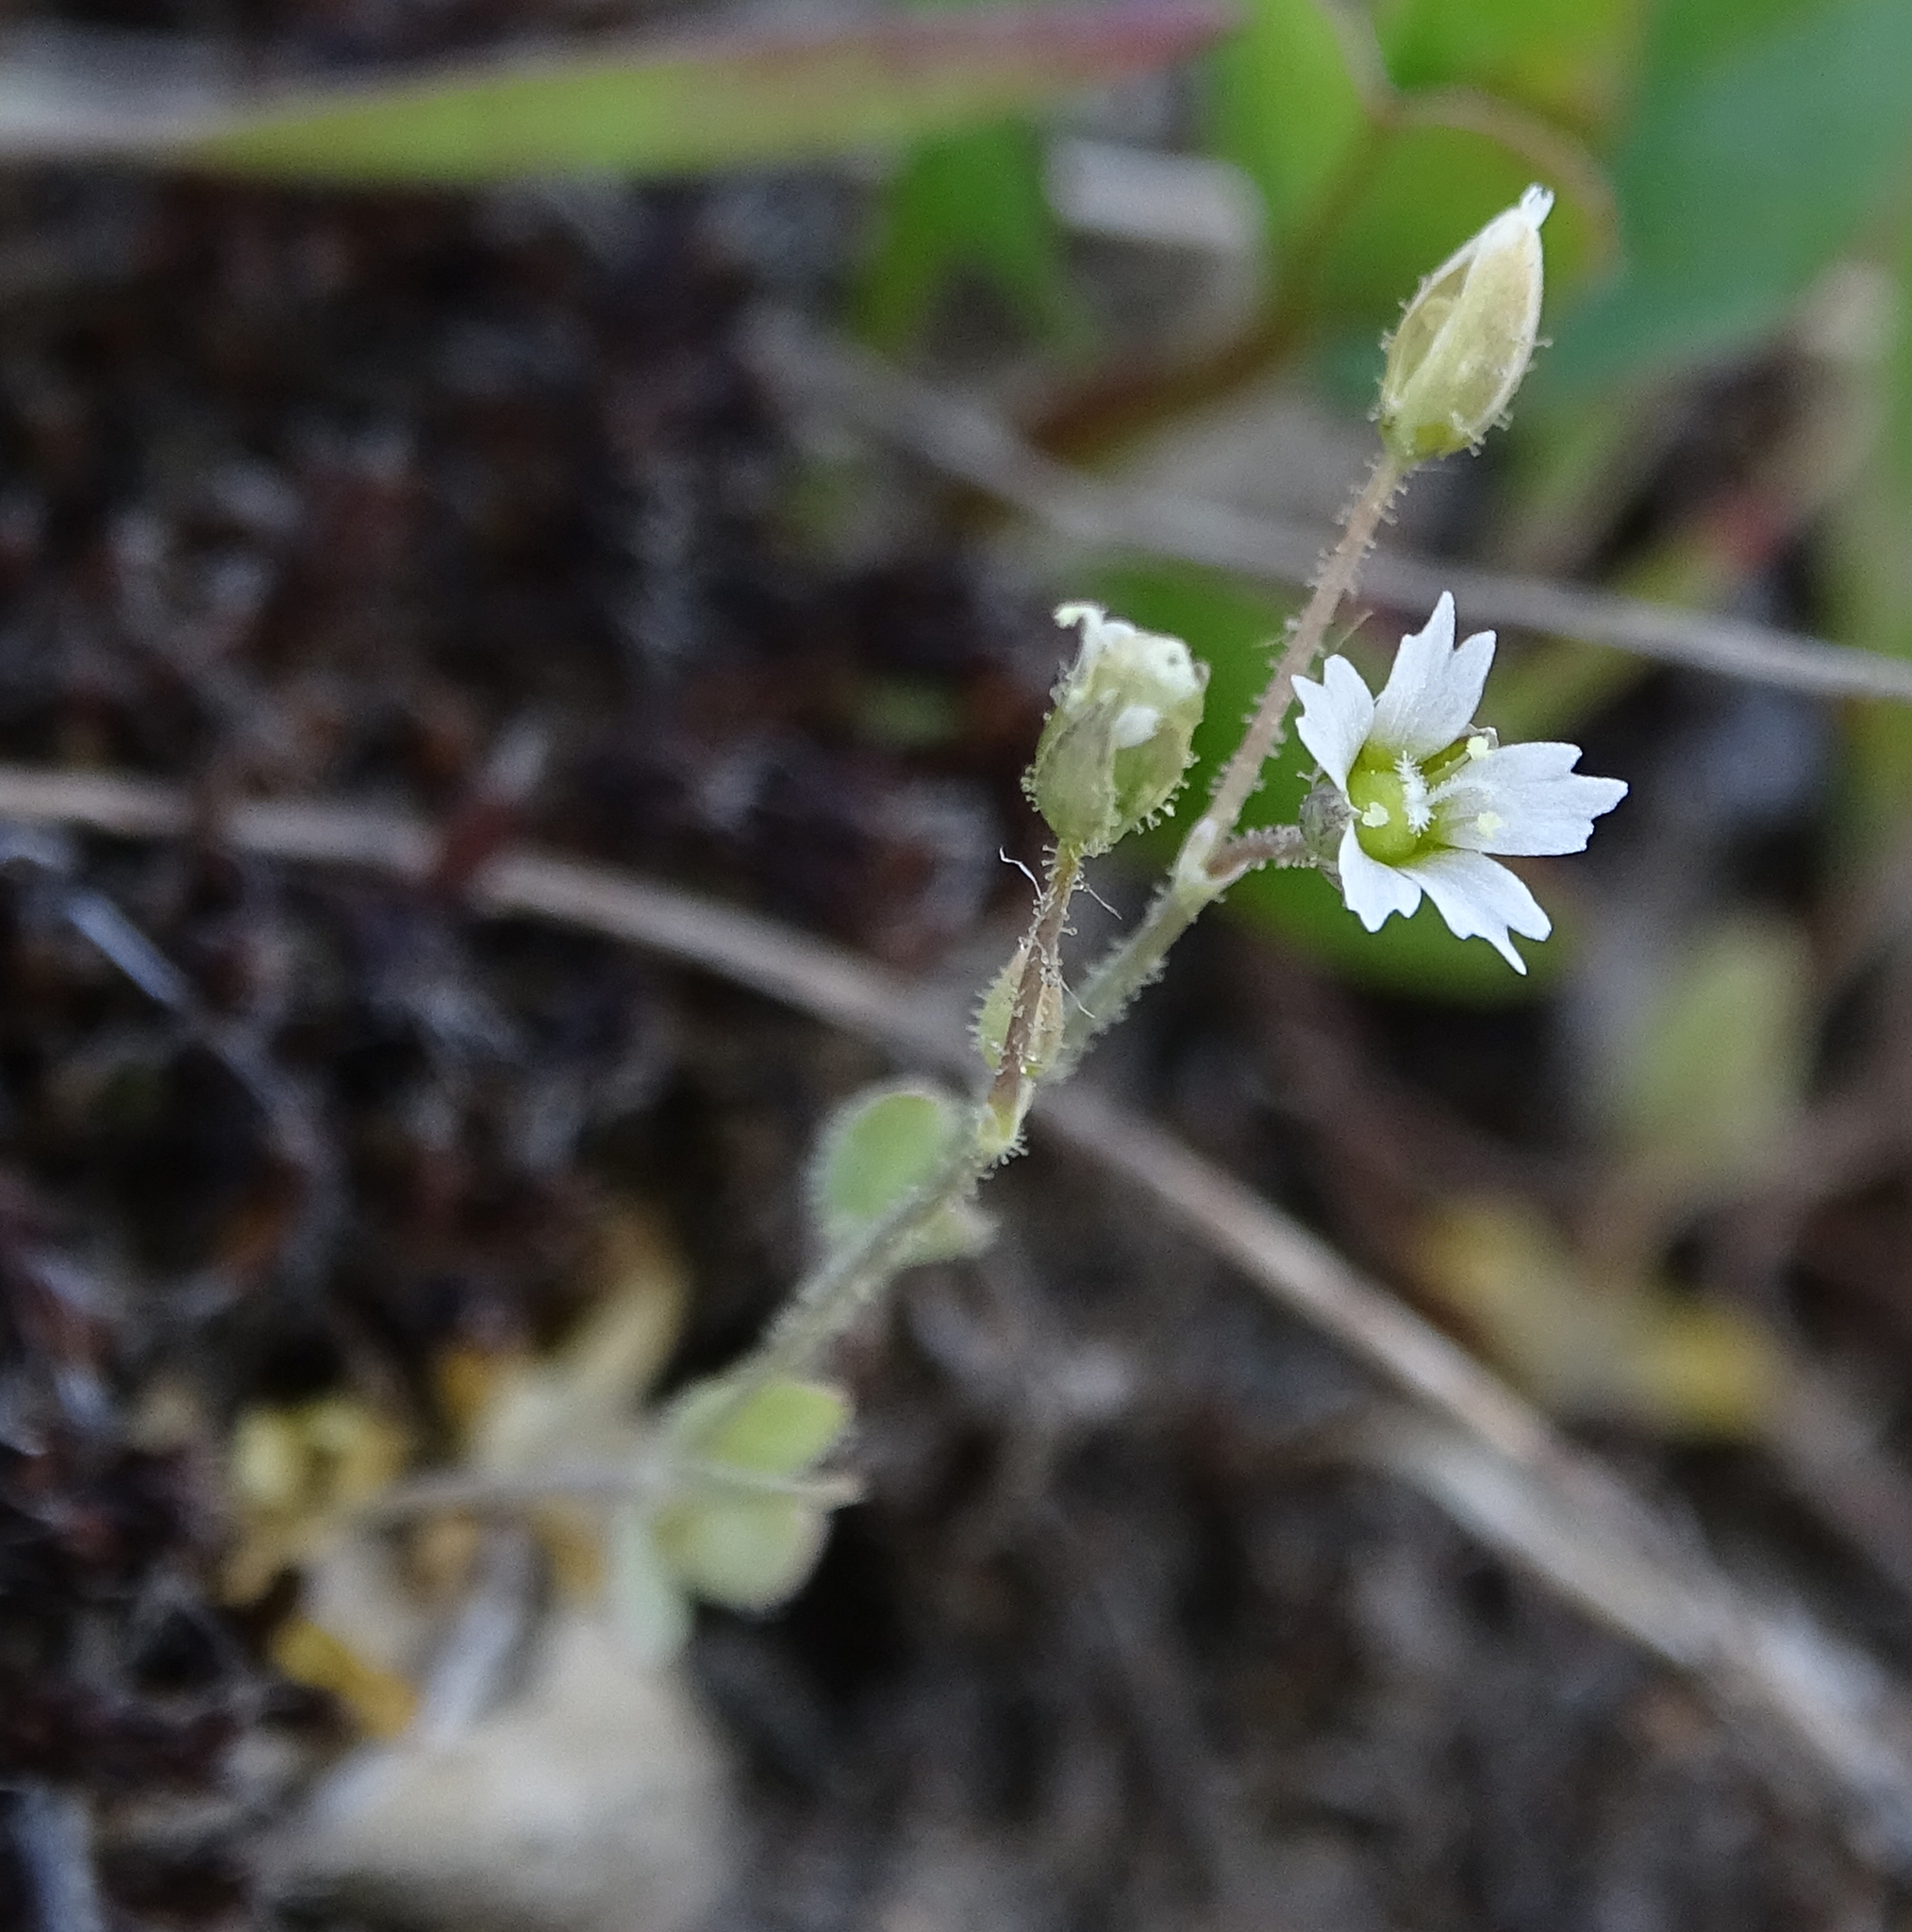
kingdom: Plantae
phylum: Tracheophyta
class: Magnoliopsida
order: Caryophyllales
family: Caryophyllaceae
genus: Holosteum
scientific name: Holosteum umbellatum
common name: Jagged chickweed
